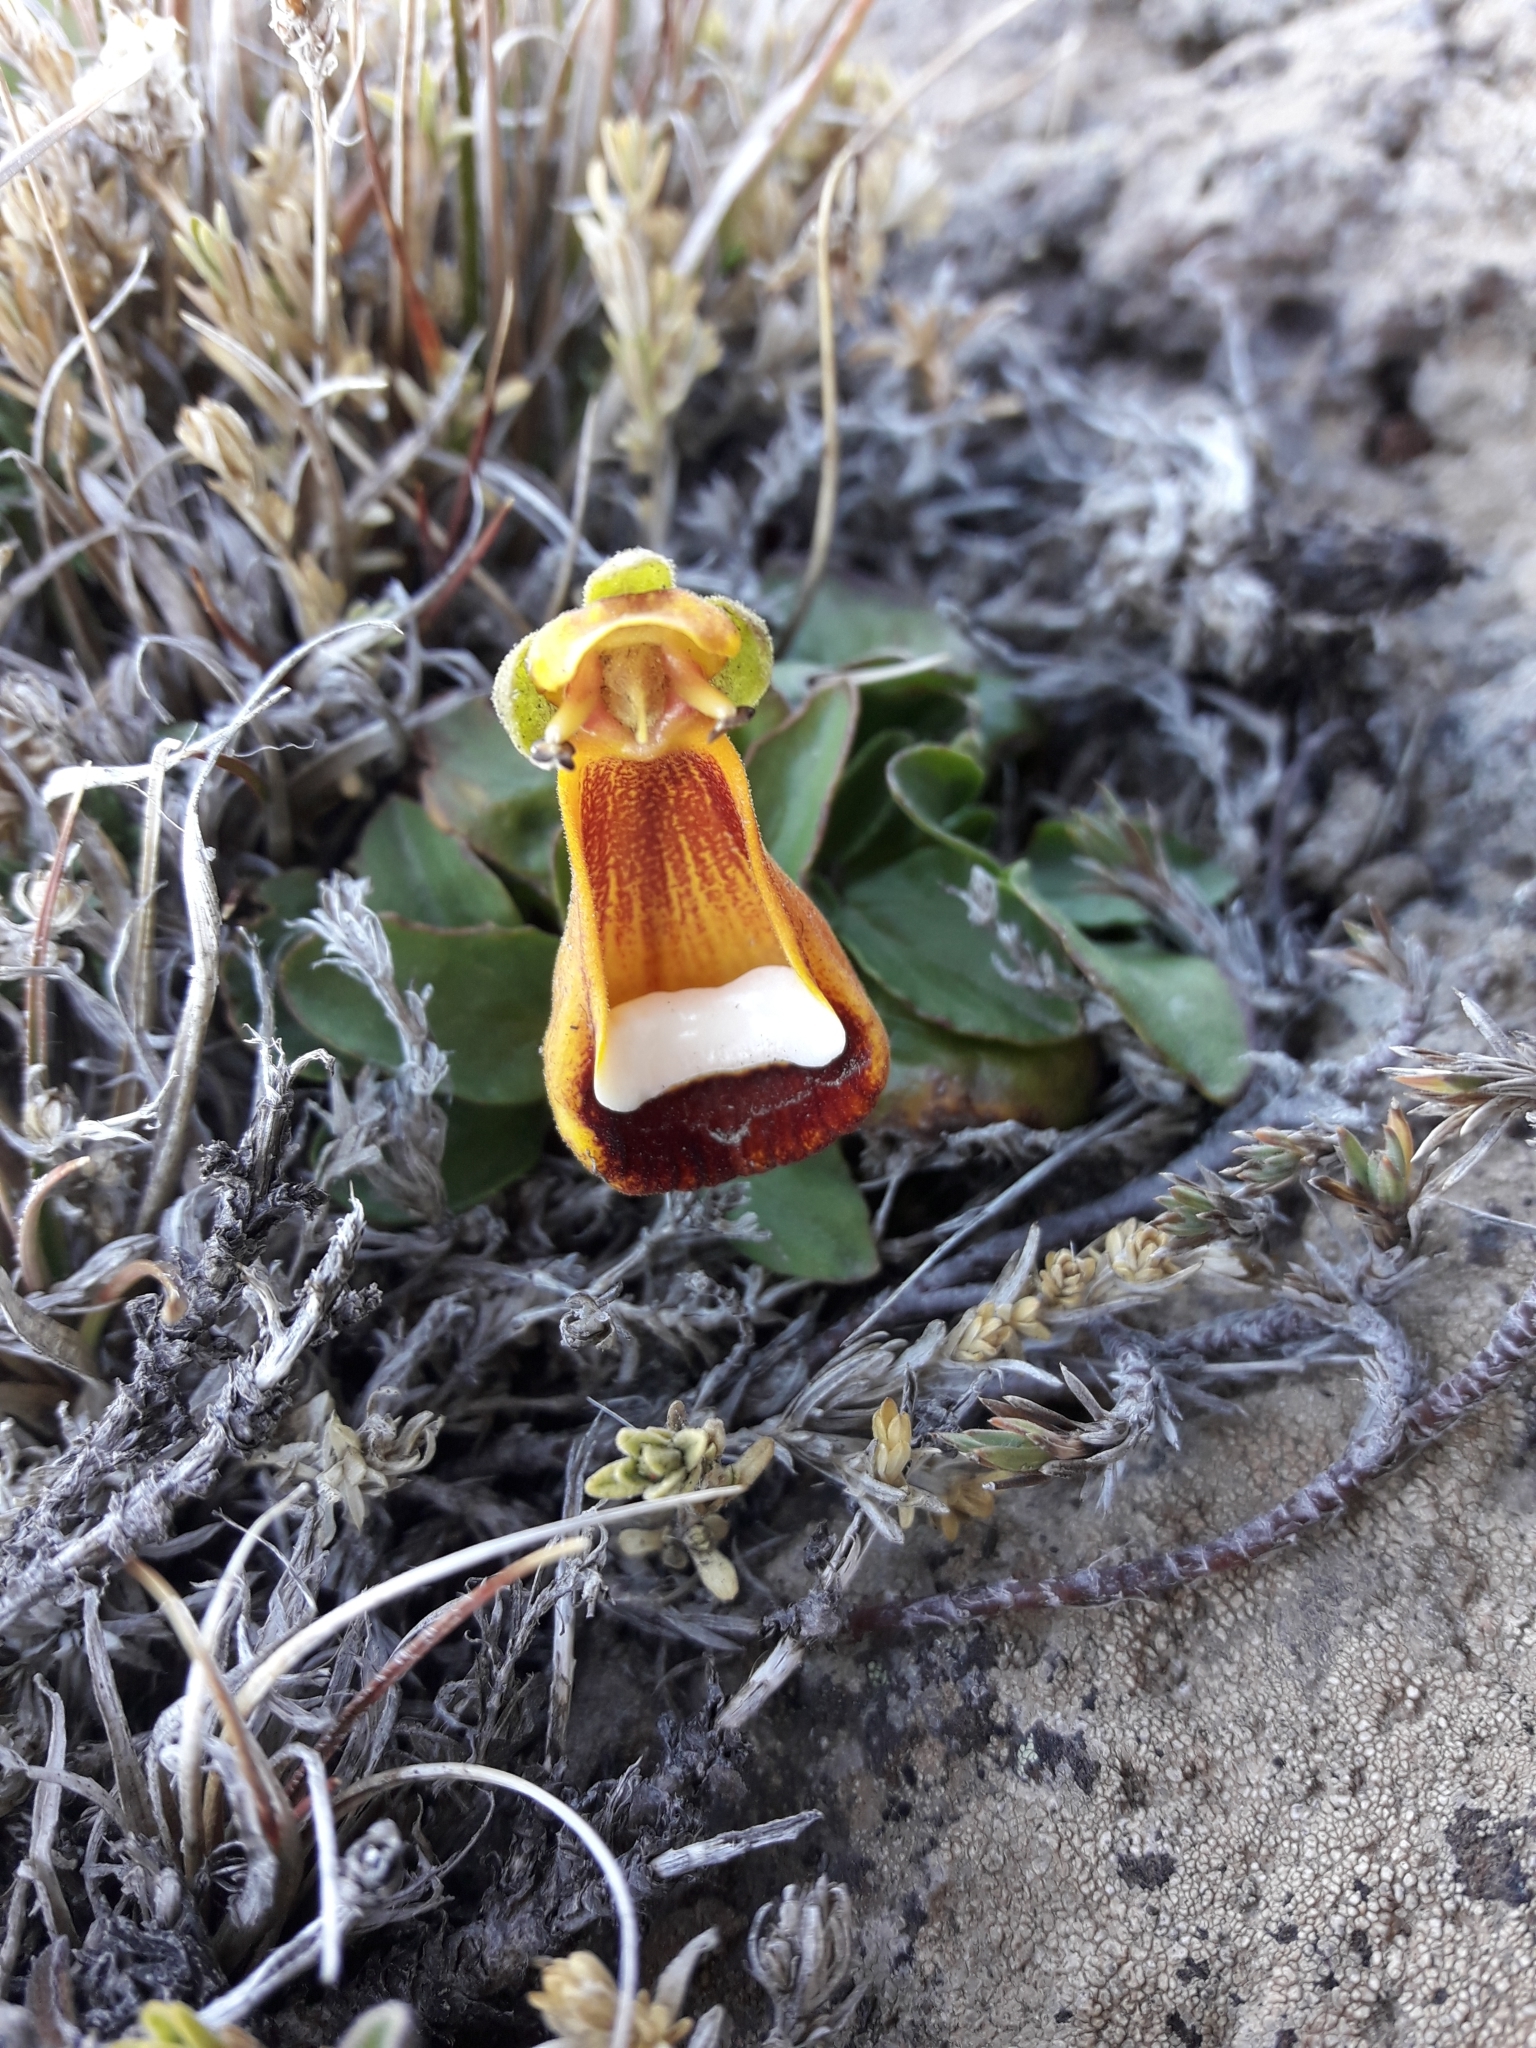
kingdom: Plantae
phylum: Tracheophyta
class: Magnoliopsida
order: Lamiales
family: Calceolariaceae
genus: Calceolaria
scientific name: Calceolaria uniflora
